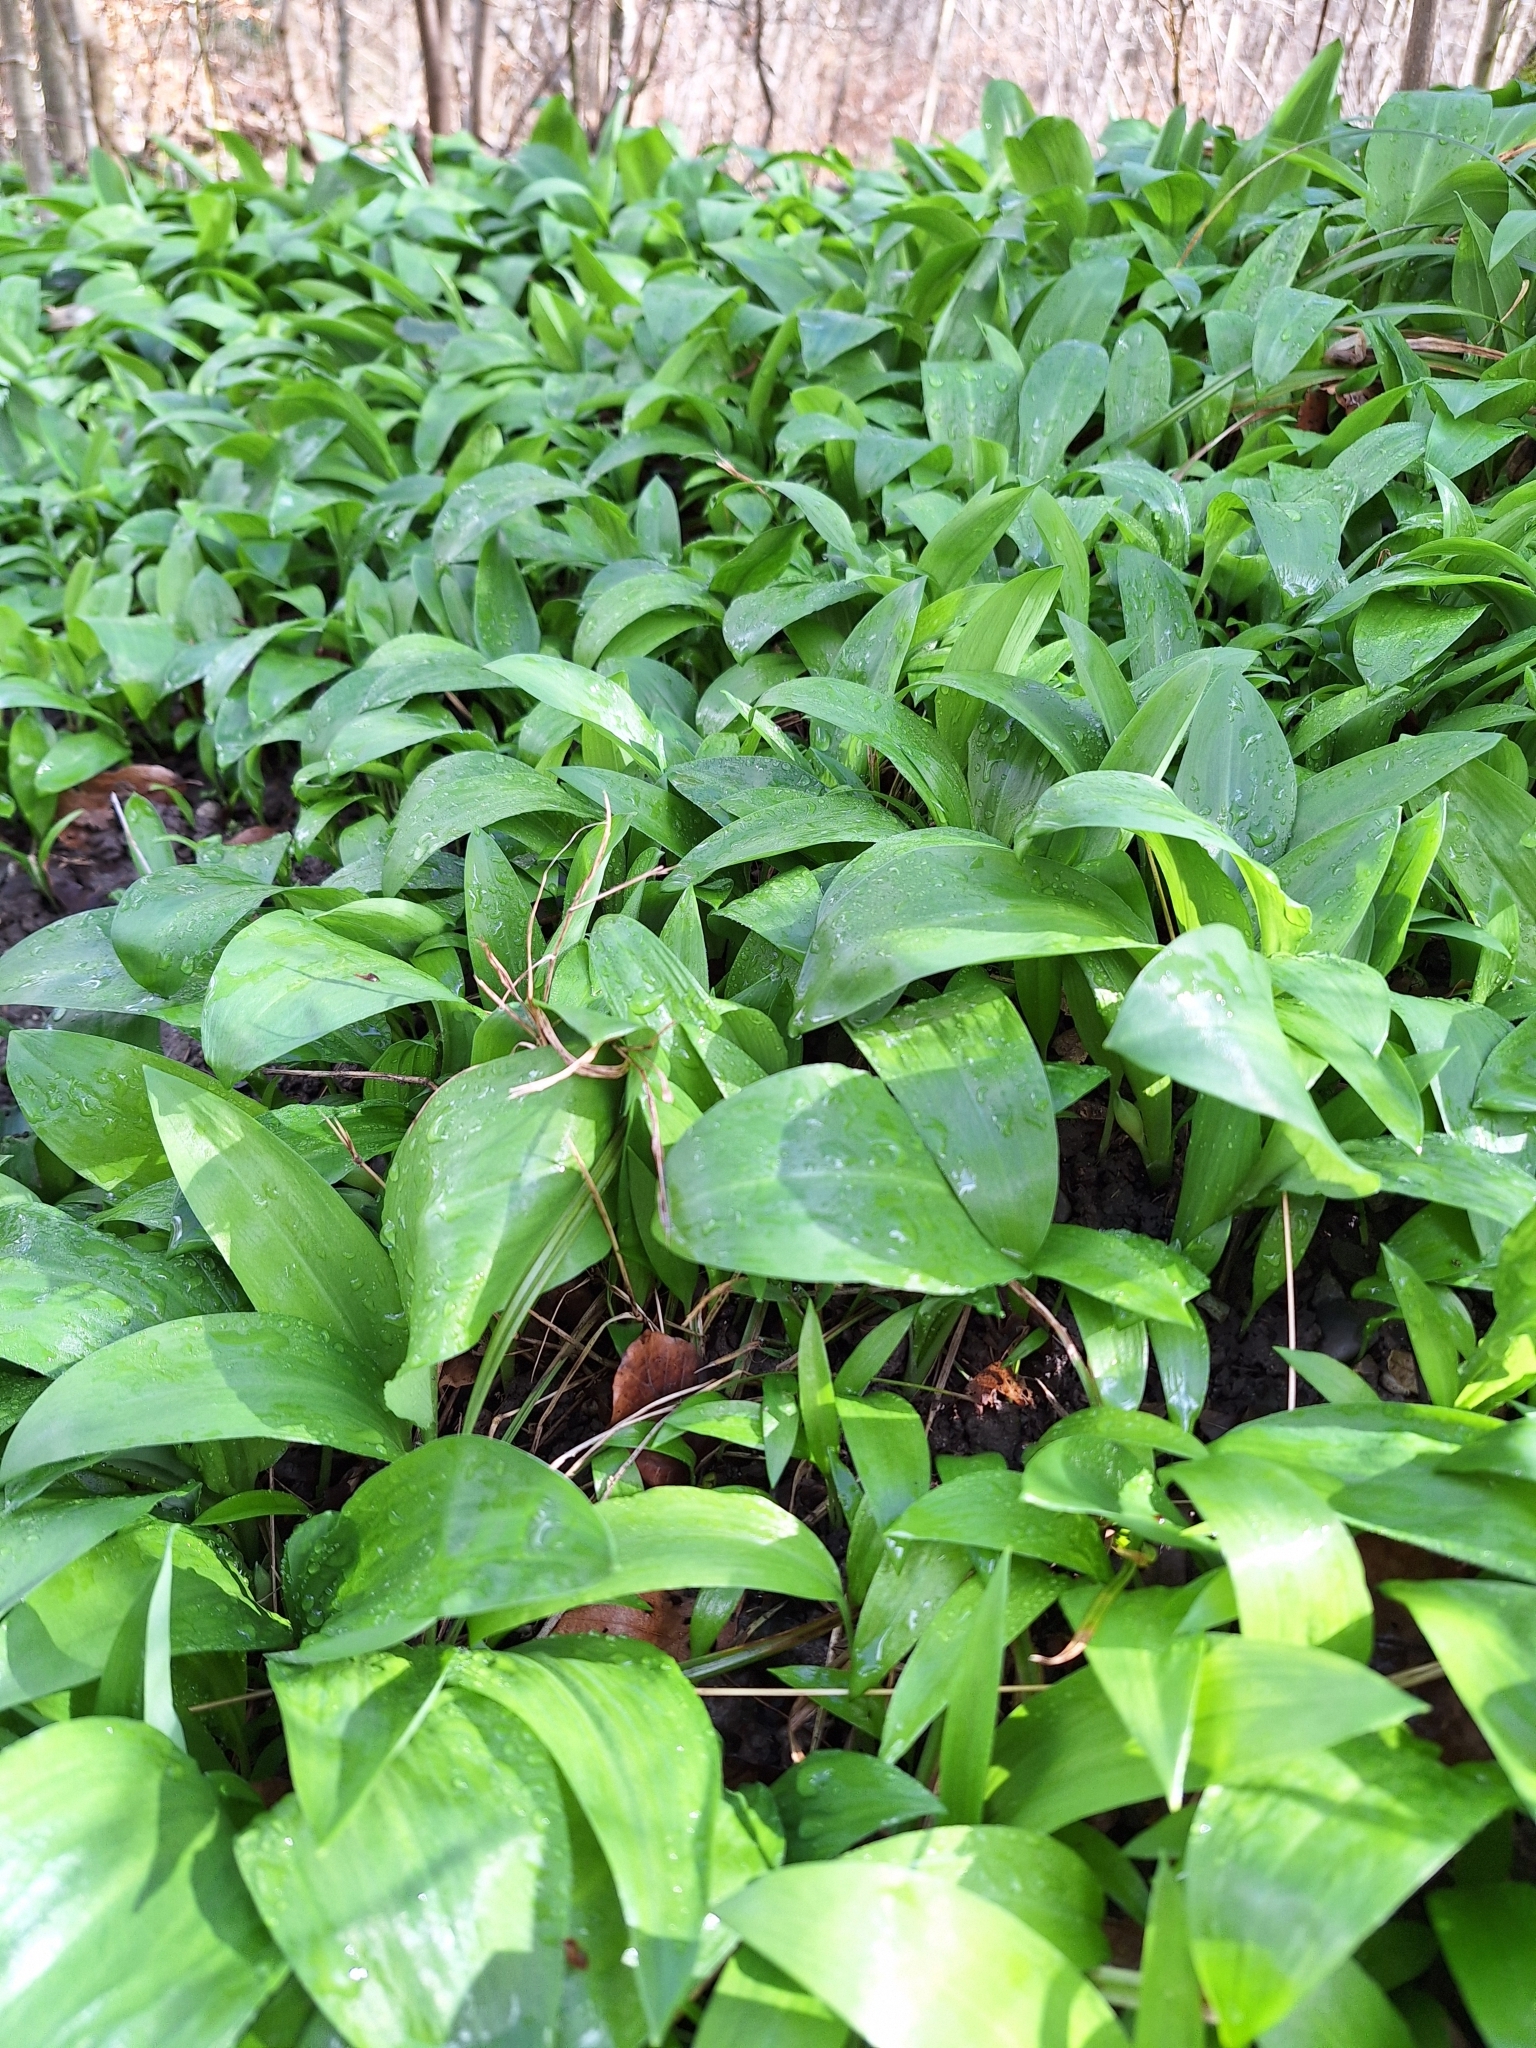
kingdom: Plantae
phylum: Tracheophyta
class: Liliopsida
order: Asparagales
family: Amaryllidaceae
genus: Allium
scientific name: Allium ursinum
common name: Ramsons
